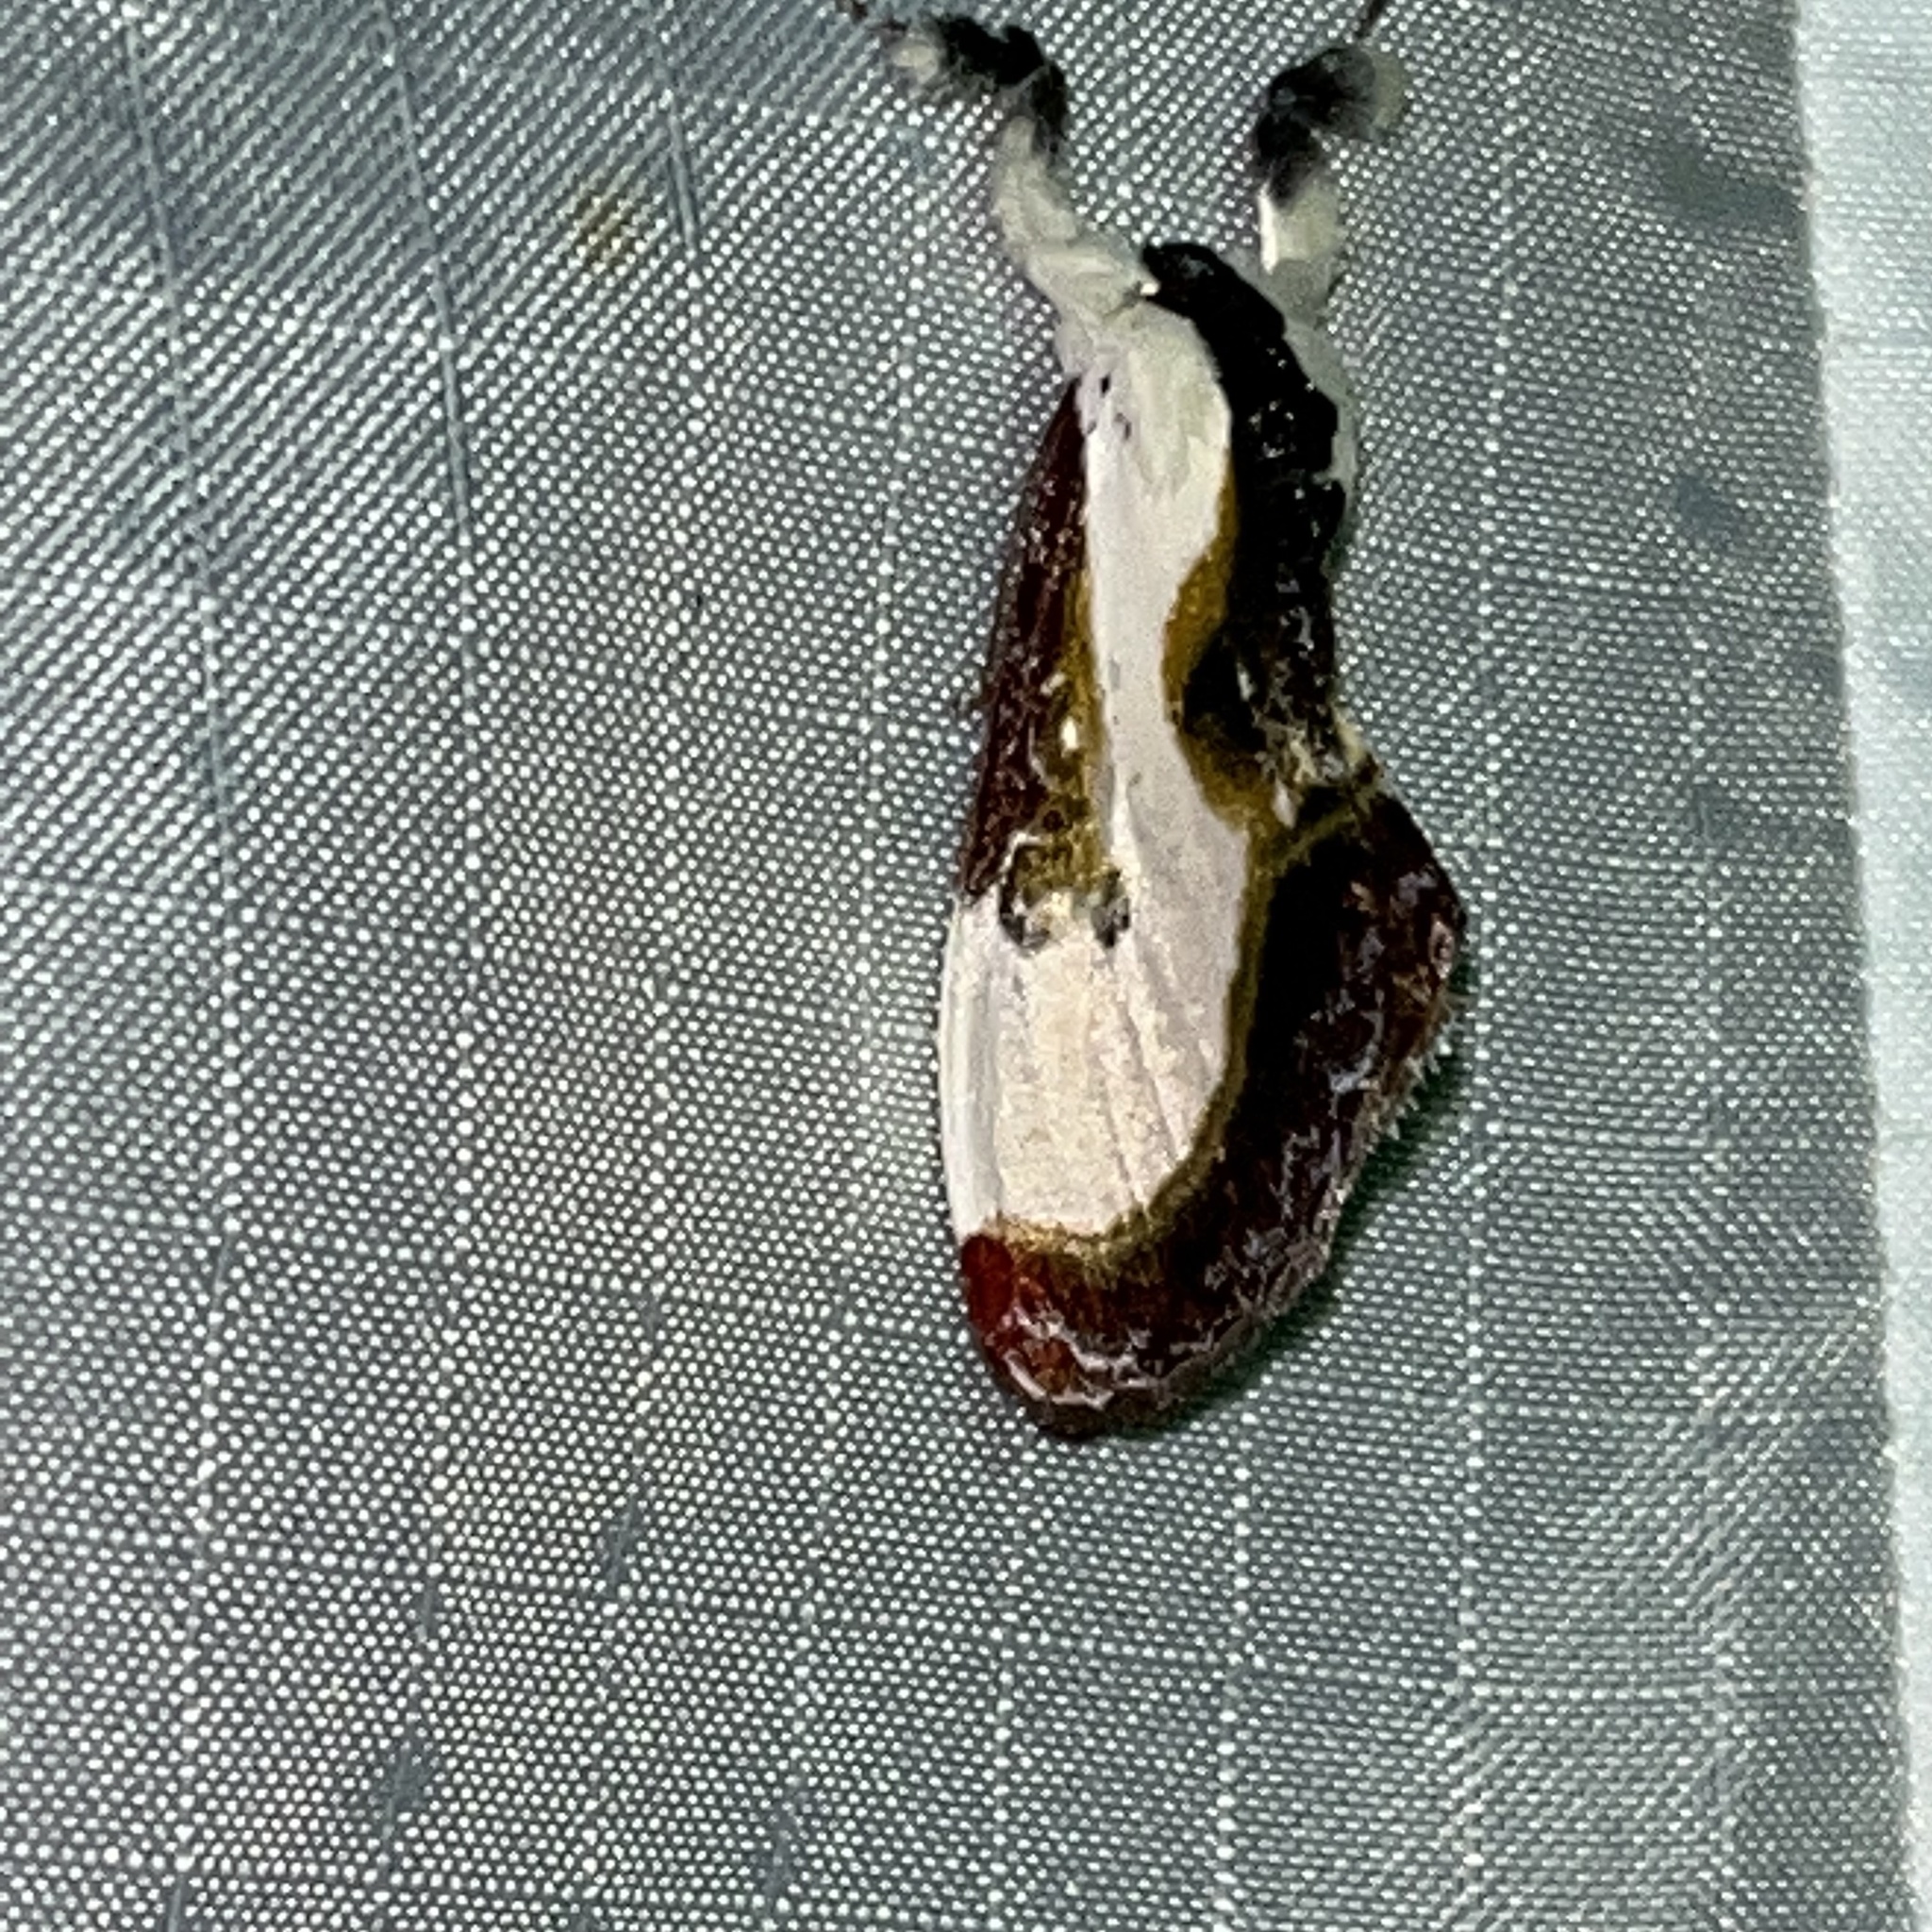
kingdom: Animalia
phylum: Arthropoda
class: Insecta
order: Lepidoptera
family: Noctuidae
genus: Eudryas
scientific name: Eudryas grata
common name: Beautiful wood-nymph
